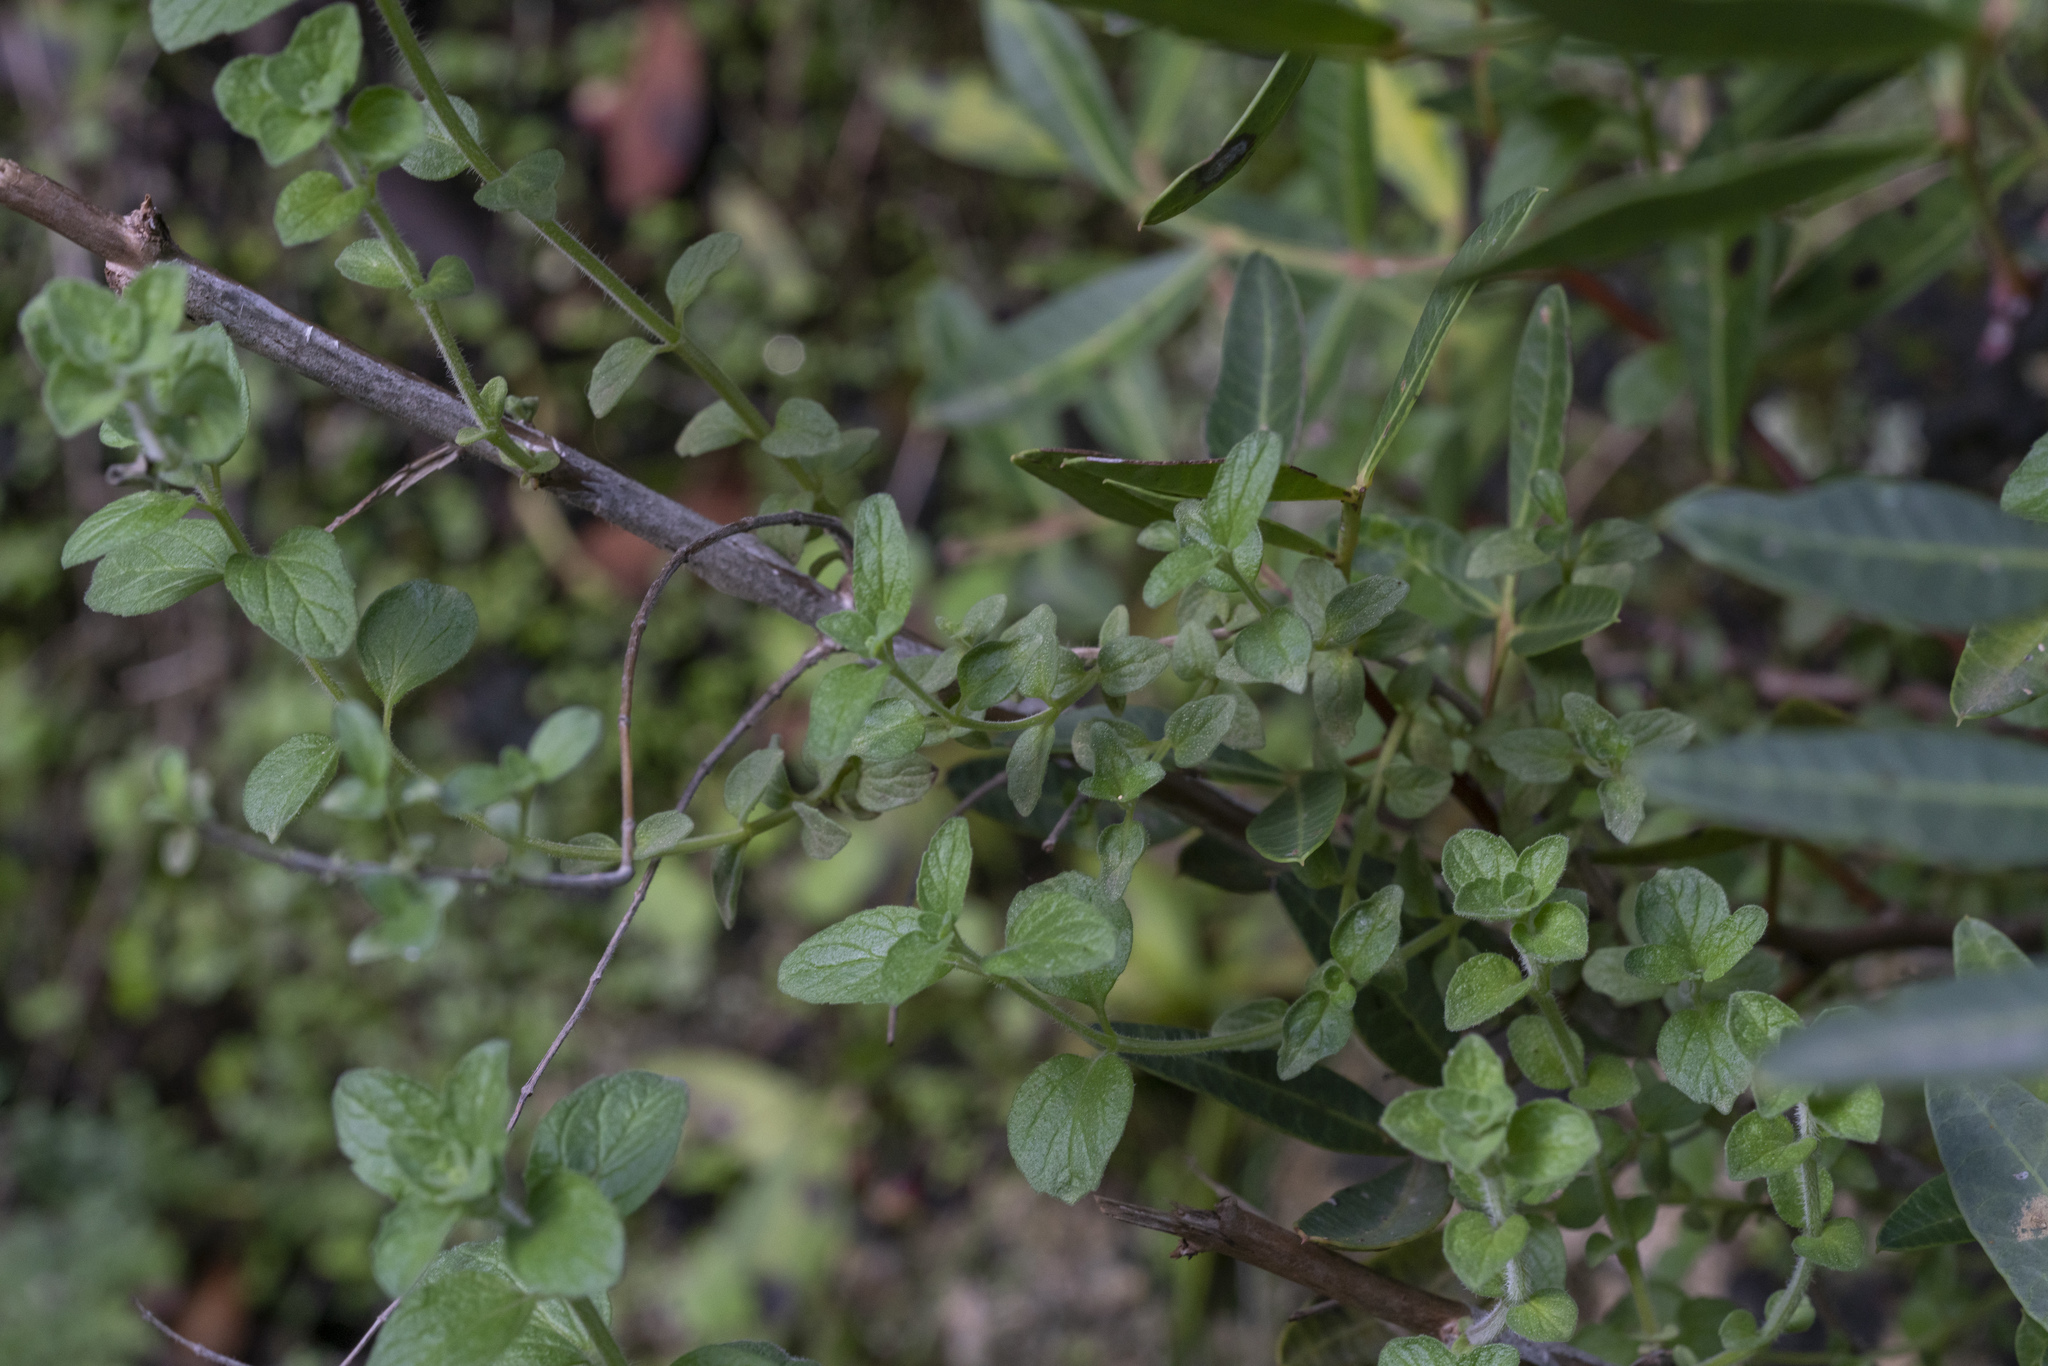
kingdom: Plantae
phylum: Tracheophyta
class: Magnoliopsida
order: Lamiales
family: Lamiaceae
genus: Prasium
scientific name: Prasium majus
